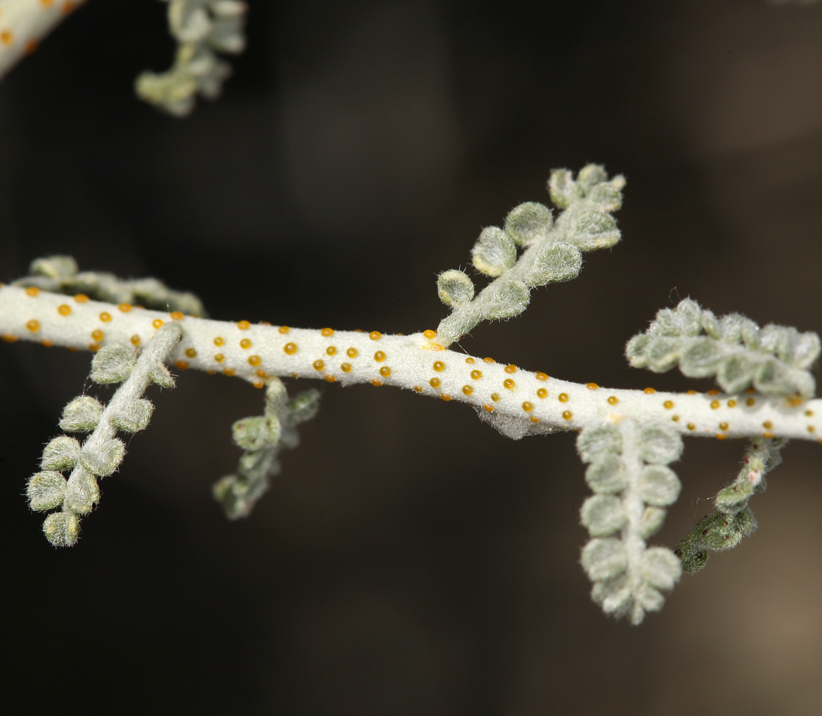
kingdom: Plantae
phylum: Tracheophyta
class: Magnoliopsida
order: Fabales
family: Fabaceae
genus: Psorothamnus
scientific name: Psorothamnus polydenius
